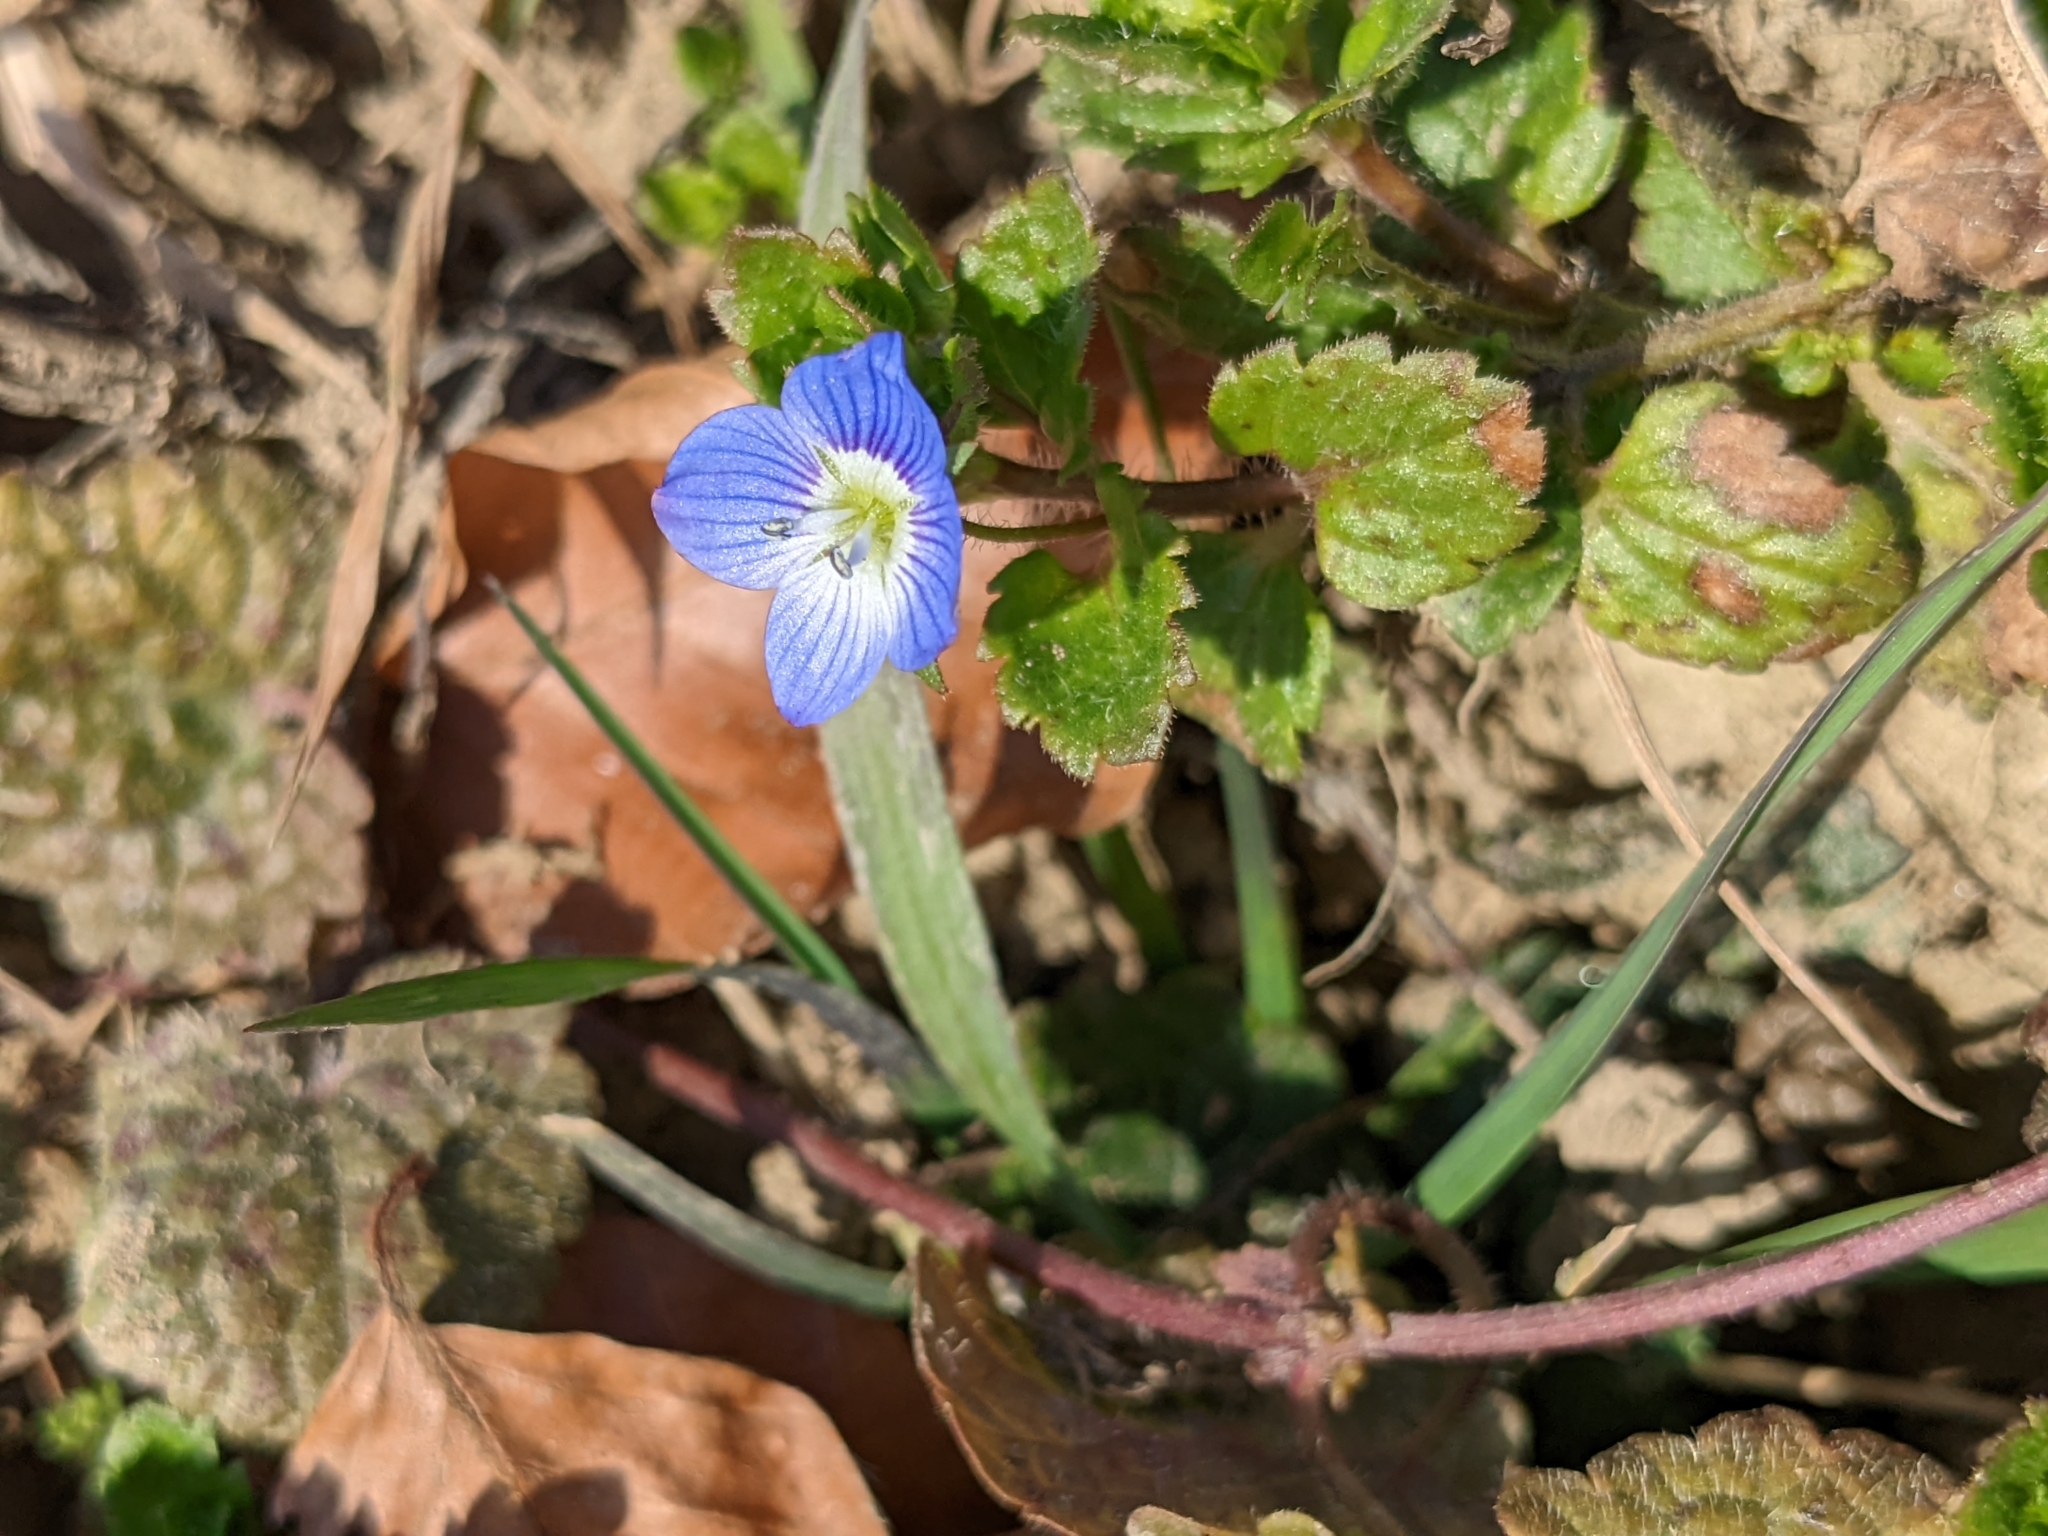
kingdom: Plantae
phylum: Tracheophyta
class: Magnoliopsida
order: Lamiales
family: Plantaginaceae
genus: Veronica
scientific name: Veronica persica
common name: Common field-speedwell
